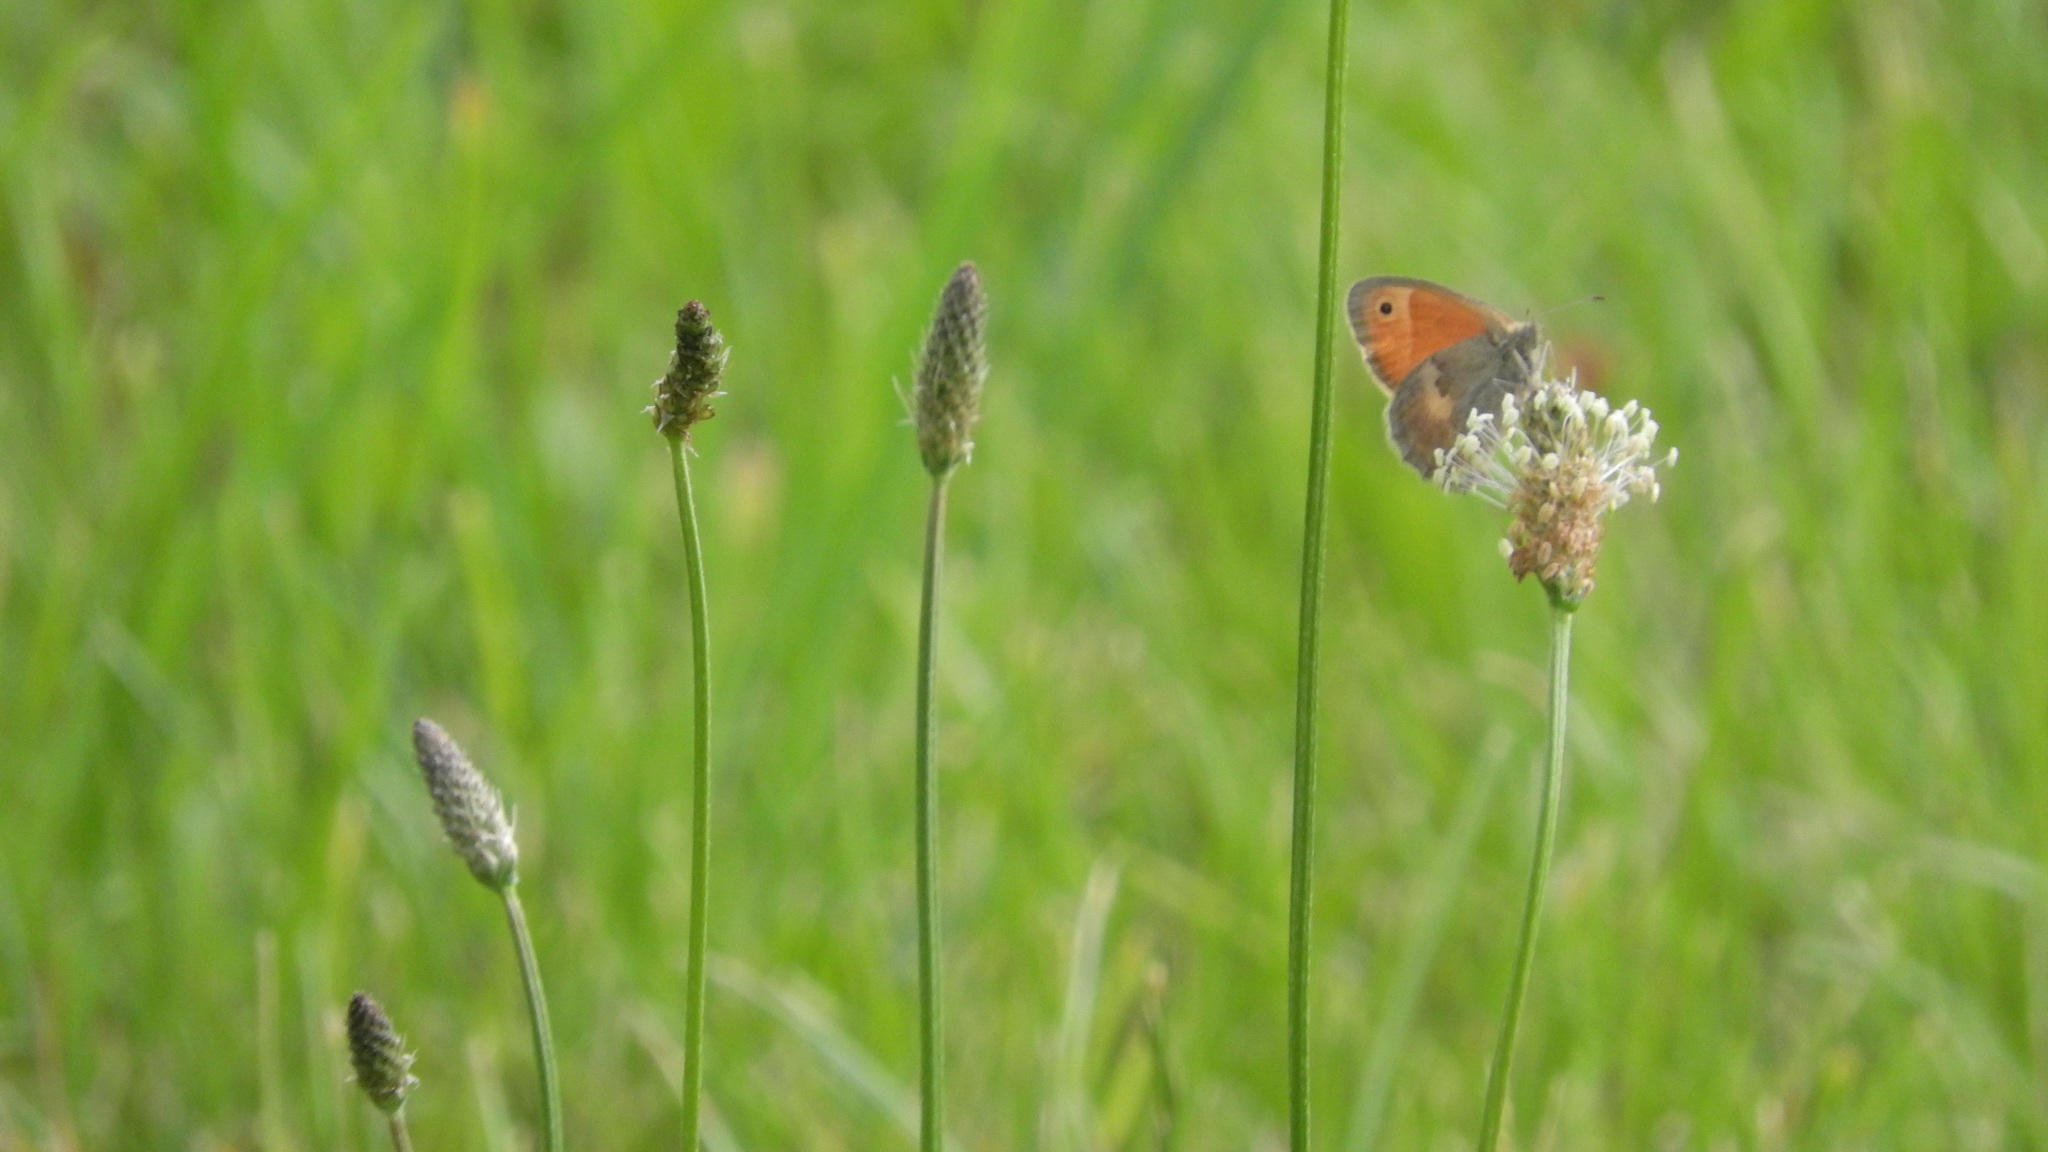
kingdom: Animalia
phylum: Arthropoda
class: Insecta
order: Lepidoptera
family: Nymphalidae
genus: Coenonympha
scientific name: Coenonympha pamphilus
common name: Small heath
